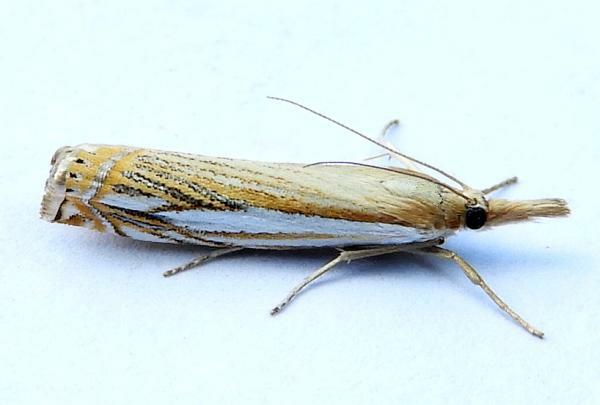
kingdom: Animalia
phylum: Arthropoda
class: Insecta
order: Lepidoptera
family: Crambidae
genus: Crambus
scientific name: Crambus saltuellus
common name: Pasture grass-veneer
